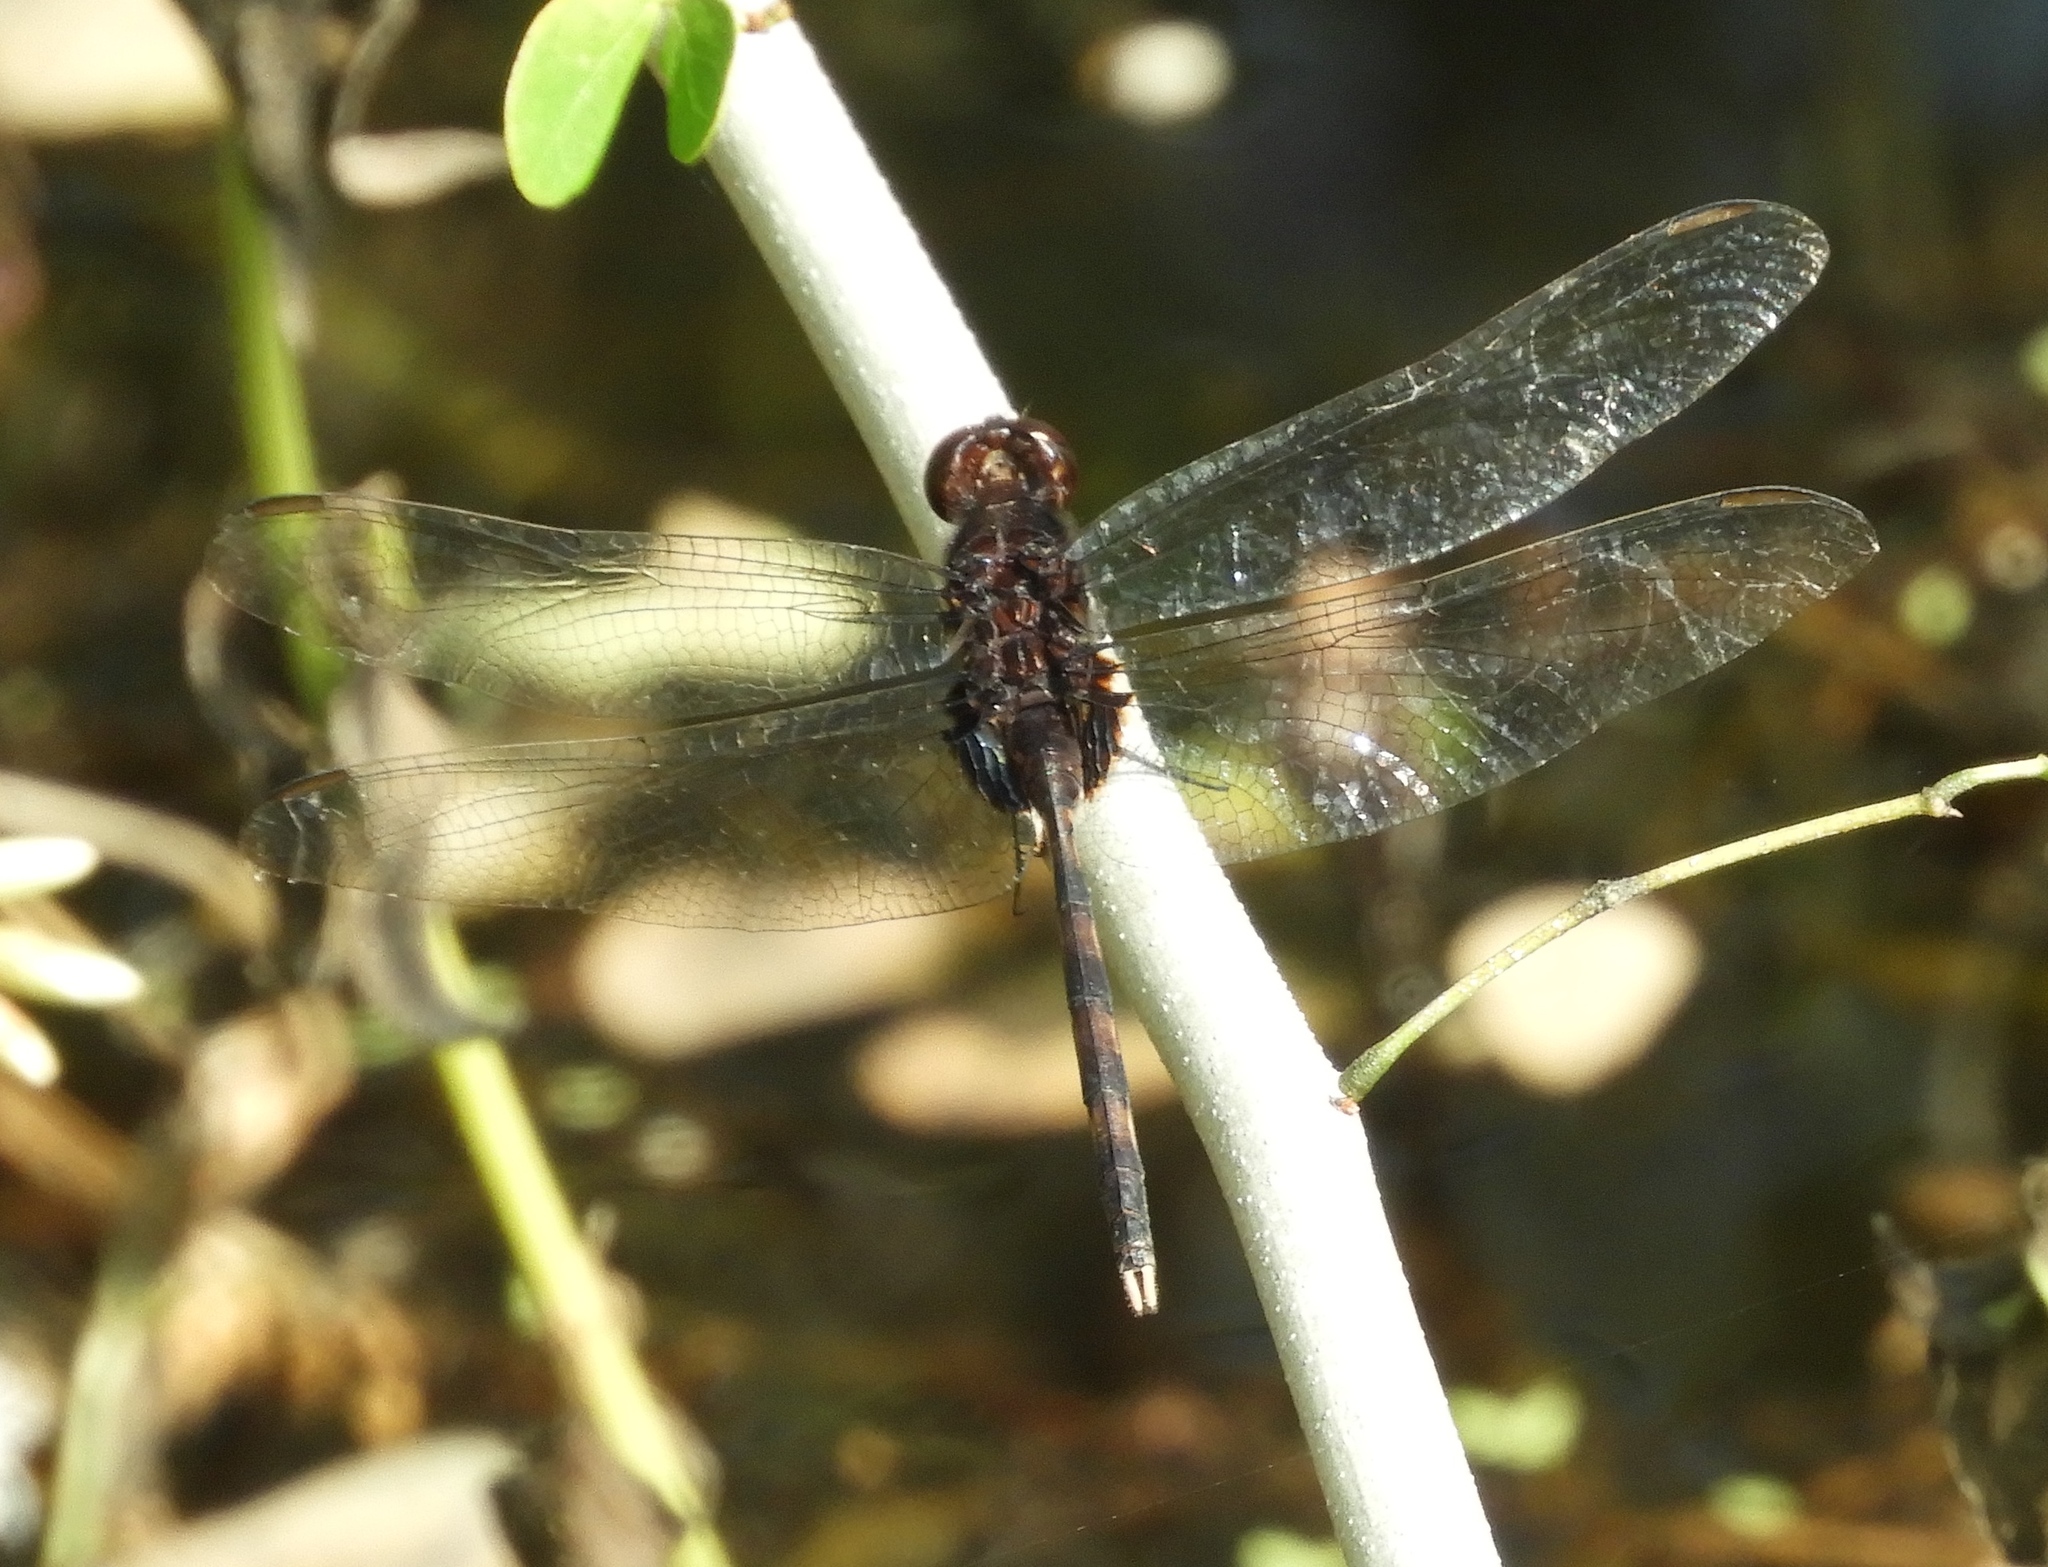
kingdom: Animalia
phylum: Arthropoda
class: Insecta
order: Odonata
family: Libellulidae
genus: Erythemis
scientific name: Erythemis plebeja
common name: Pin-tailed pondhawk
